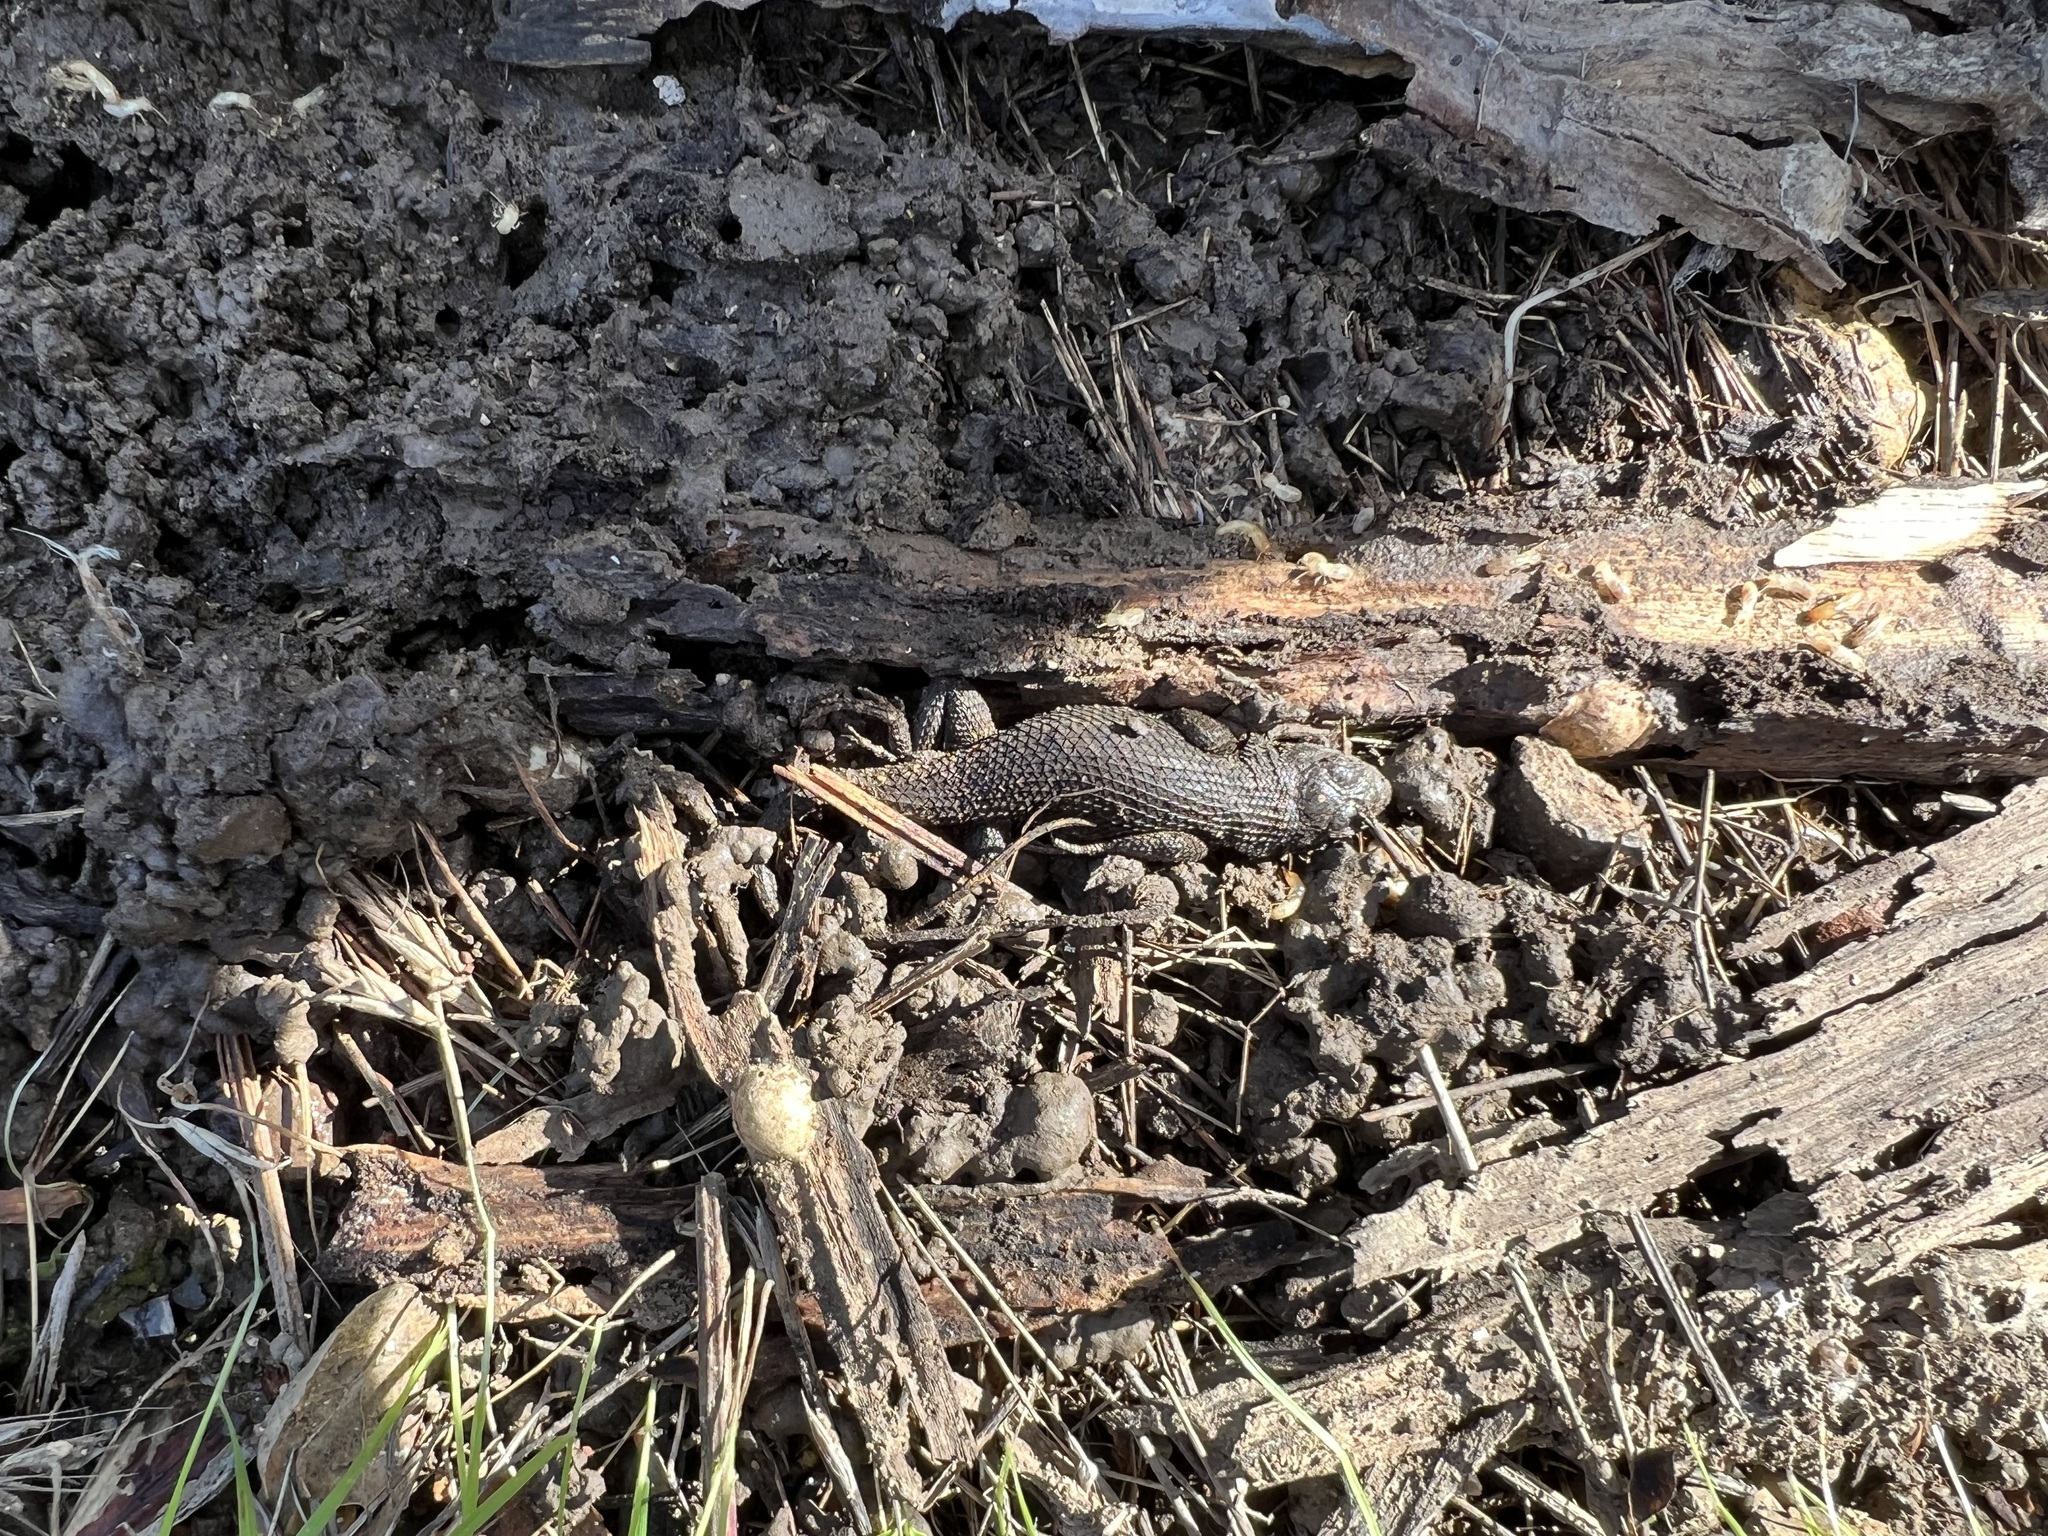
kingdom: Animalia
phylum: Chordata
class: Squamata
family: Phrynosomatidae
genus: Sceloporus
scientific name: Sceloporus occidentalis
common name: Western fence lizard
